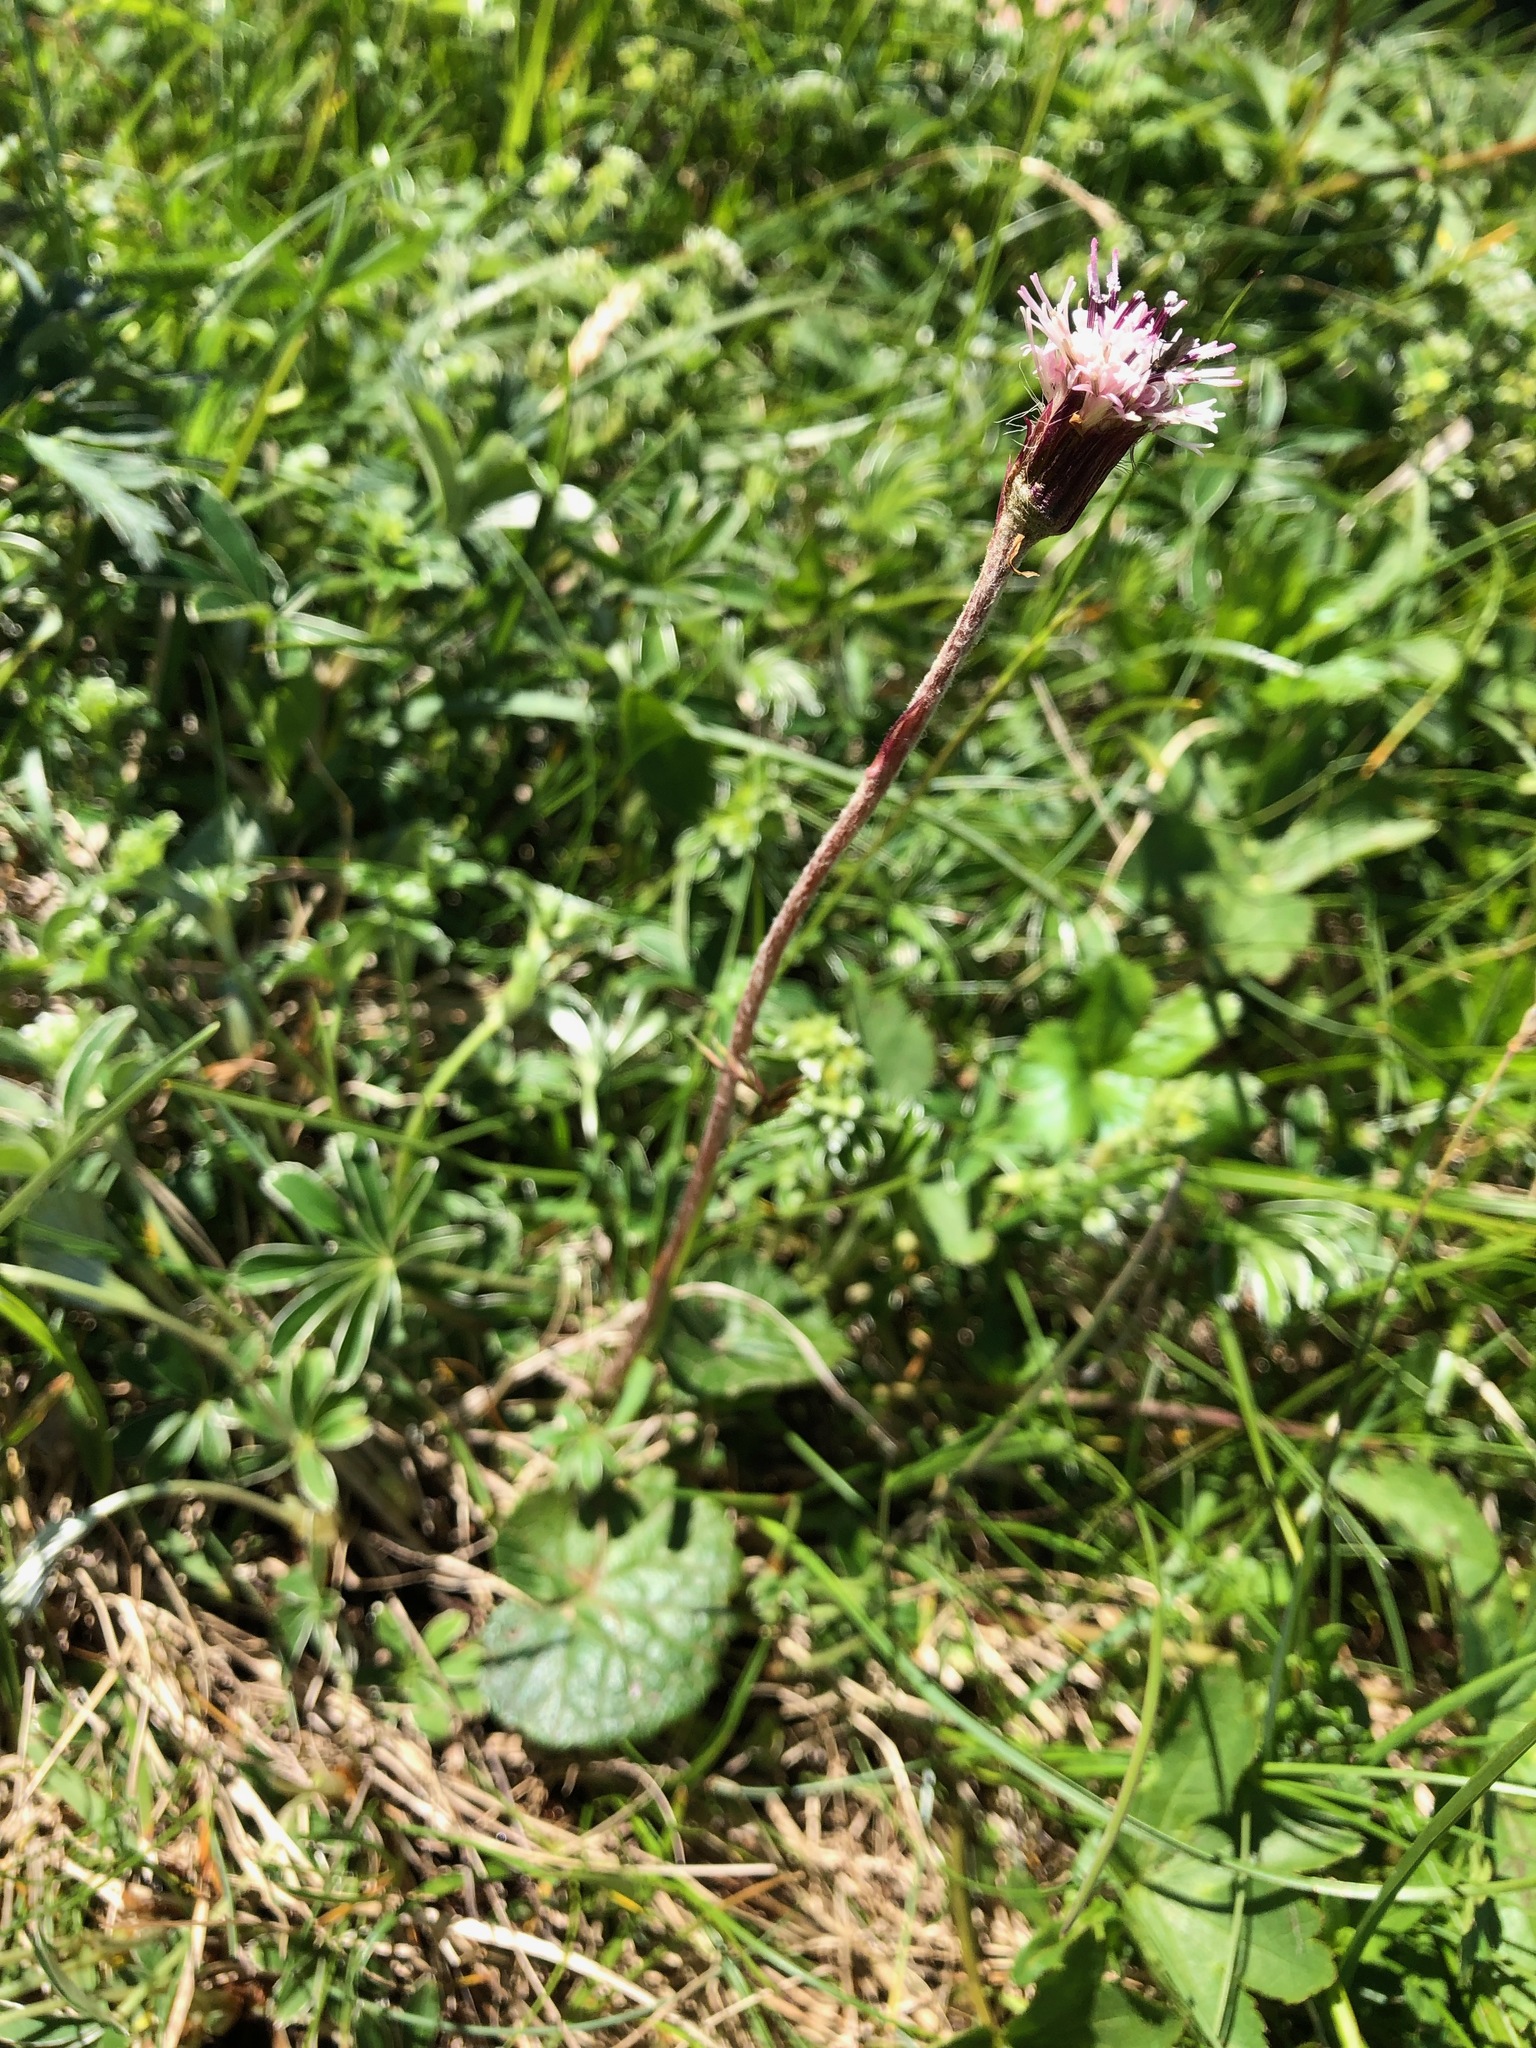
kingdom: Plantae
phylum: Tracheophyta
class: Magnoliopsida
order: Asterales
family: Asteraceae
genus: Homogyne
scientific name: Homogyne alpina
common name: Purple colt's-foot
